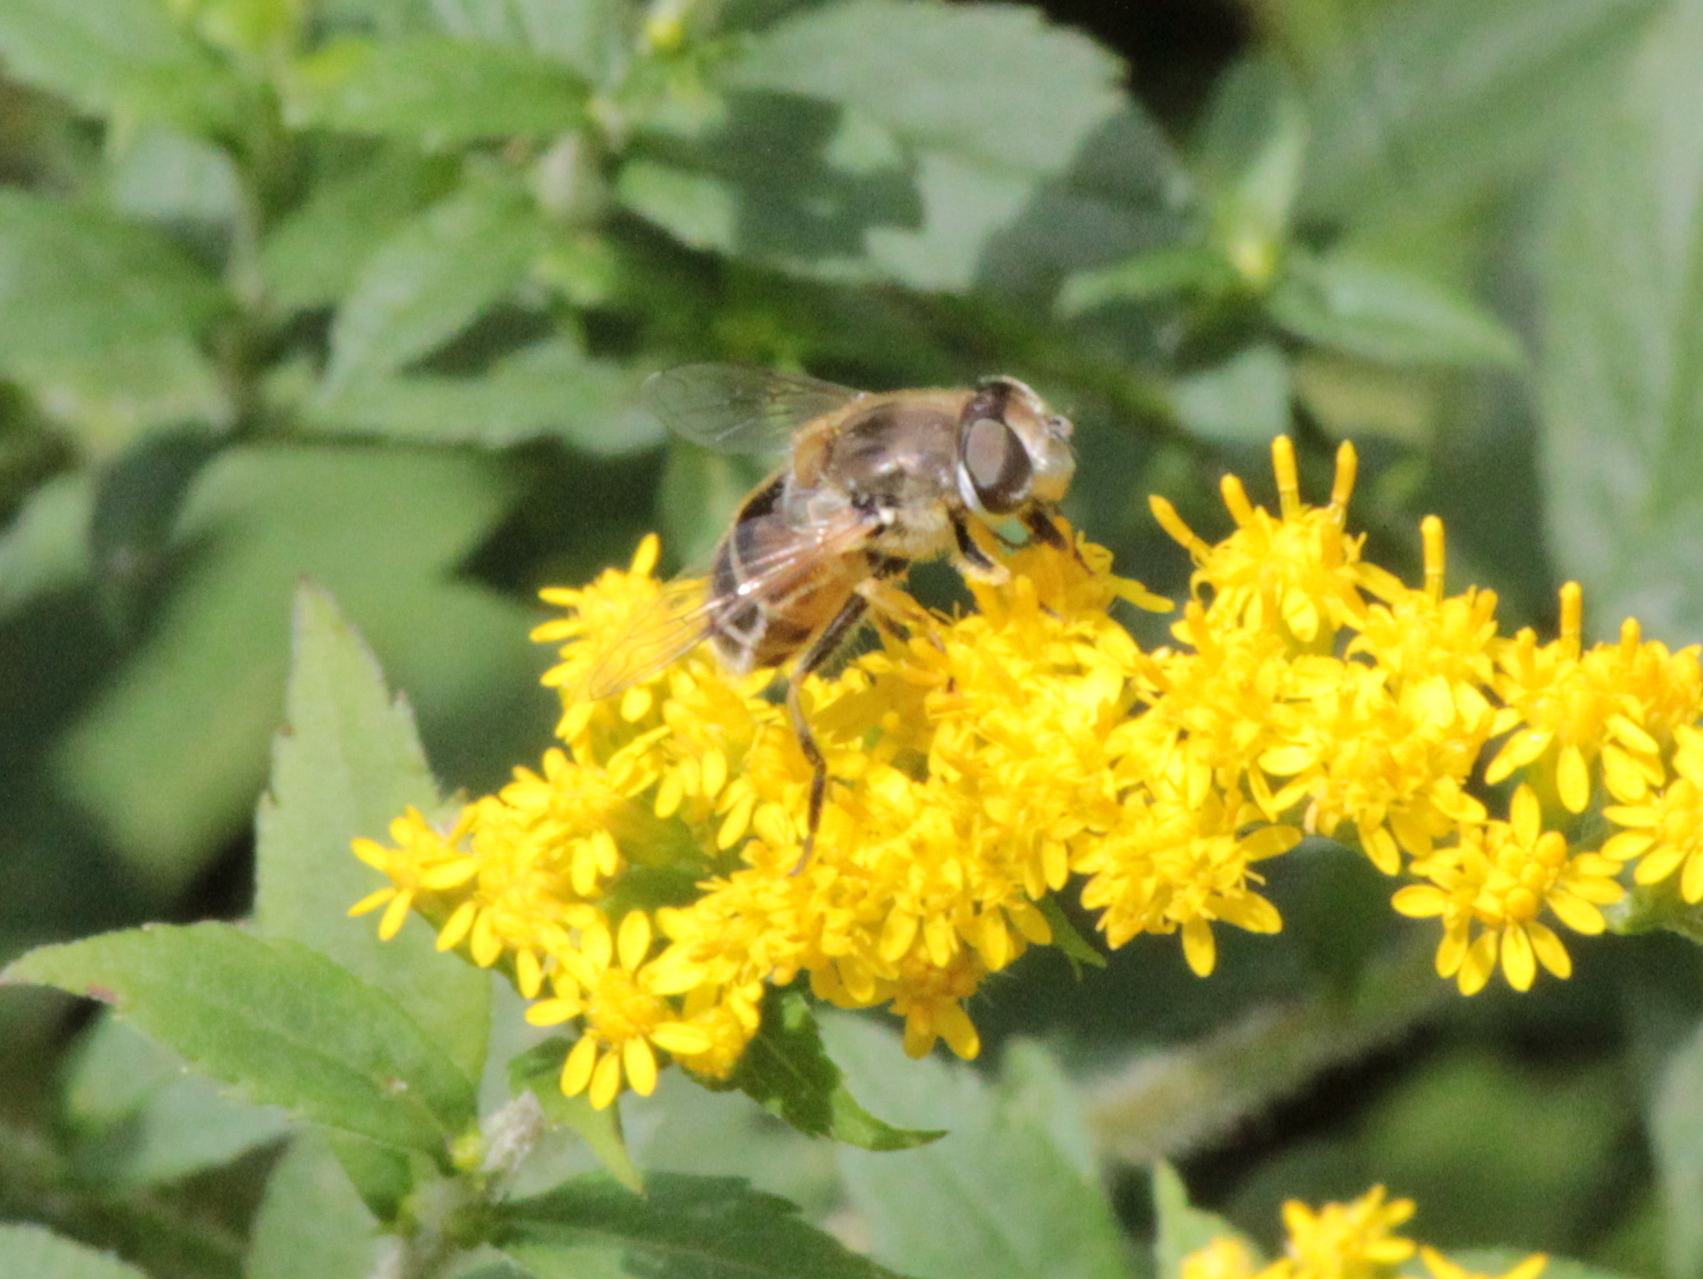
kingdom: Animalia
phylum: Arthropoda
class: Insecta
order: Diptera
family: Syrphidae
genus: Eristalis
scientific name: Eristalis arbustorum
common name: Hover fly
